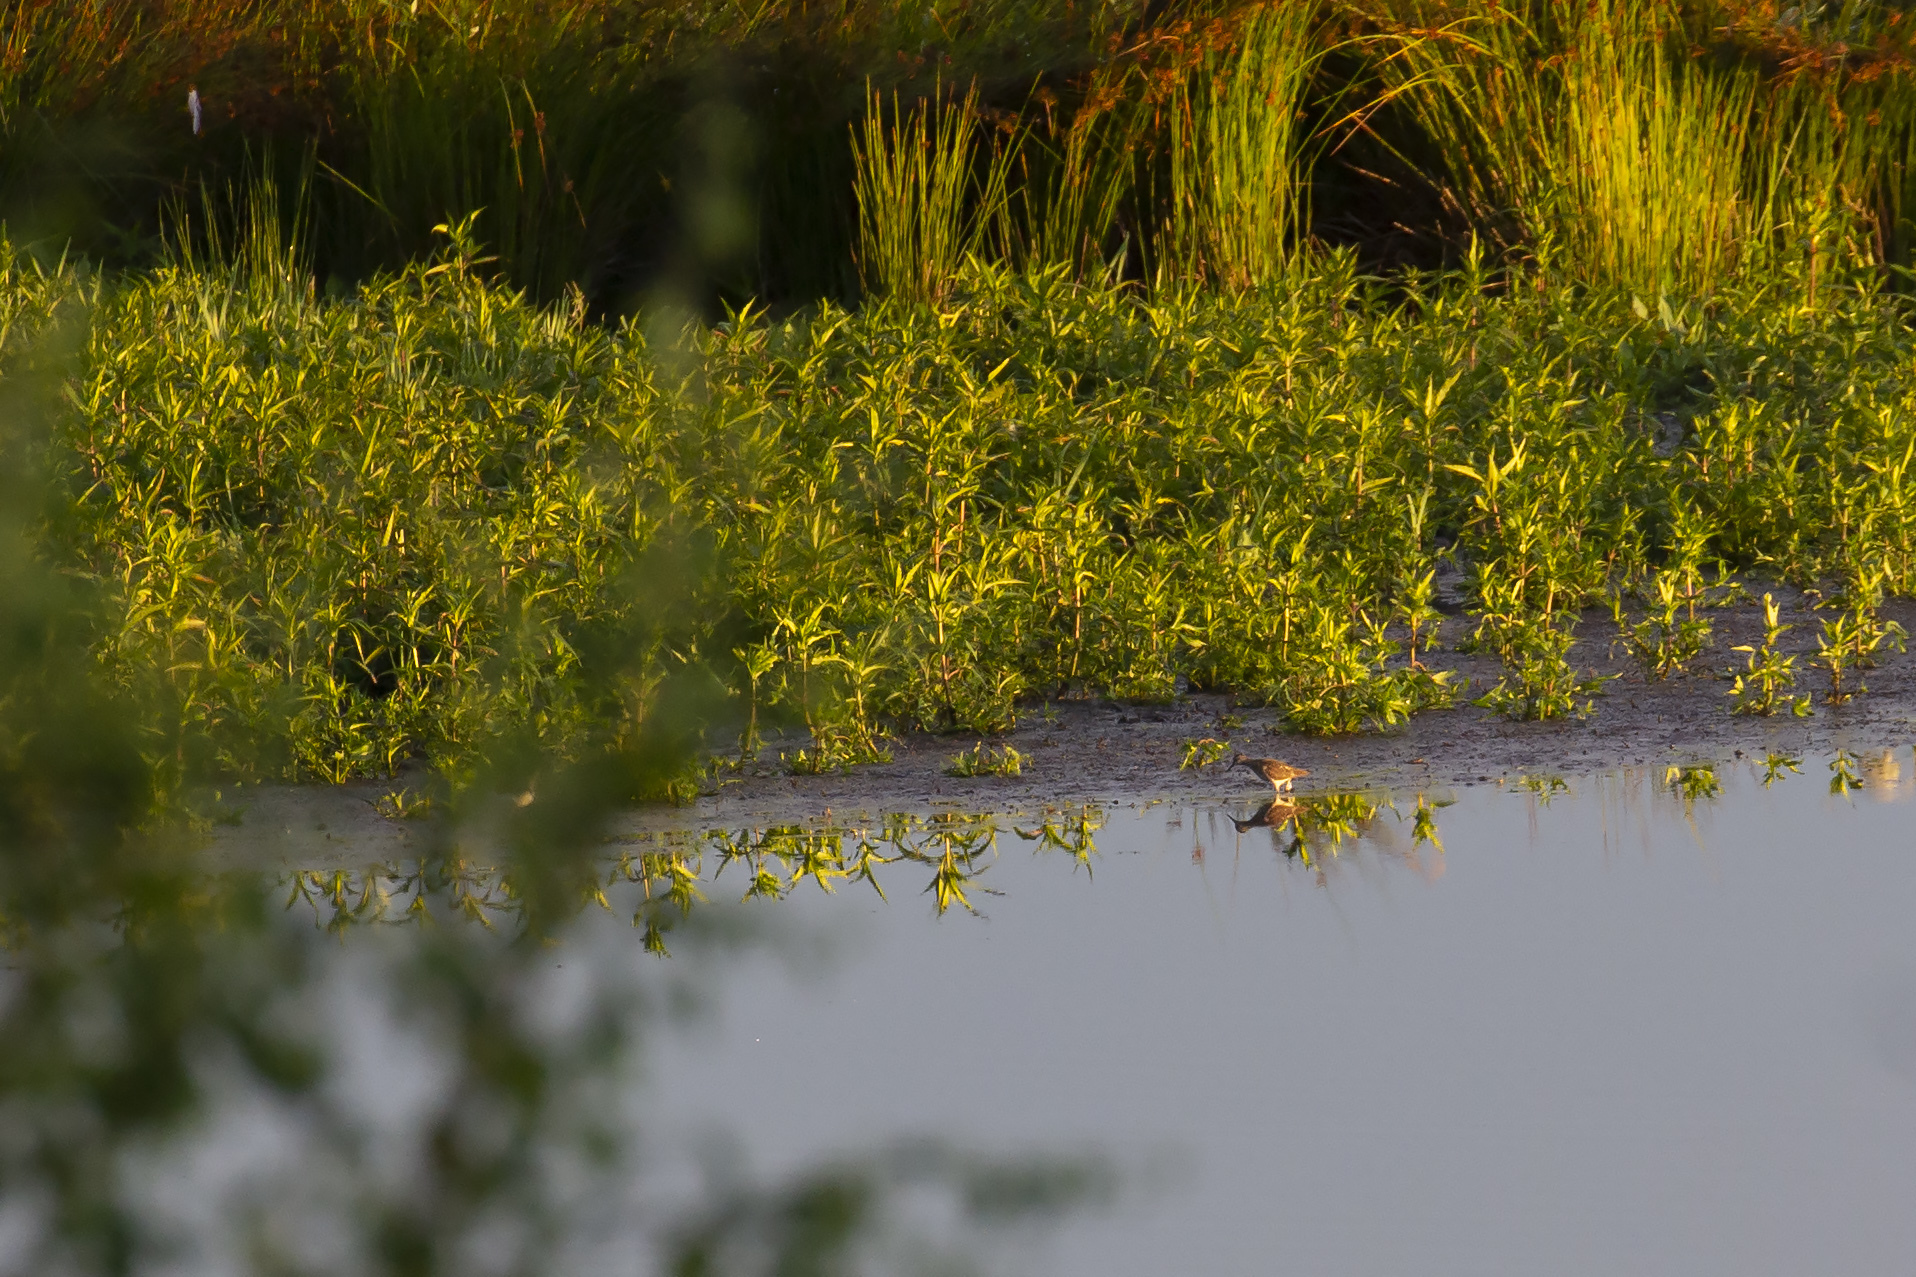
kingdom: Animalia
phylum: Chordata
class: Aves
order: Charadriiformes
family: Scolopacidae
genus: Tringa
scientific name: Tringa ochropus
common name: Green sandpiper
